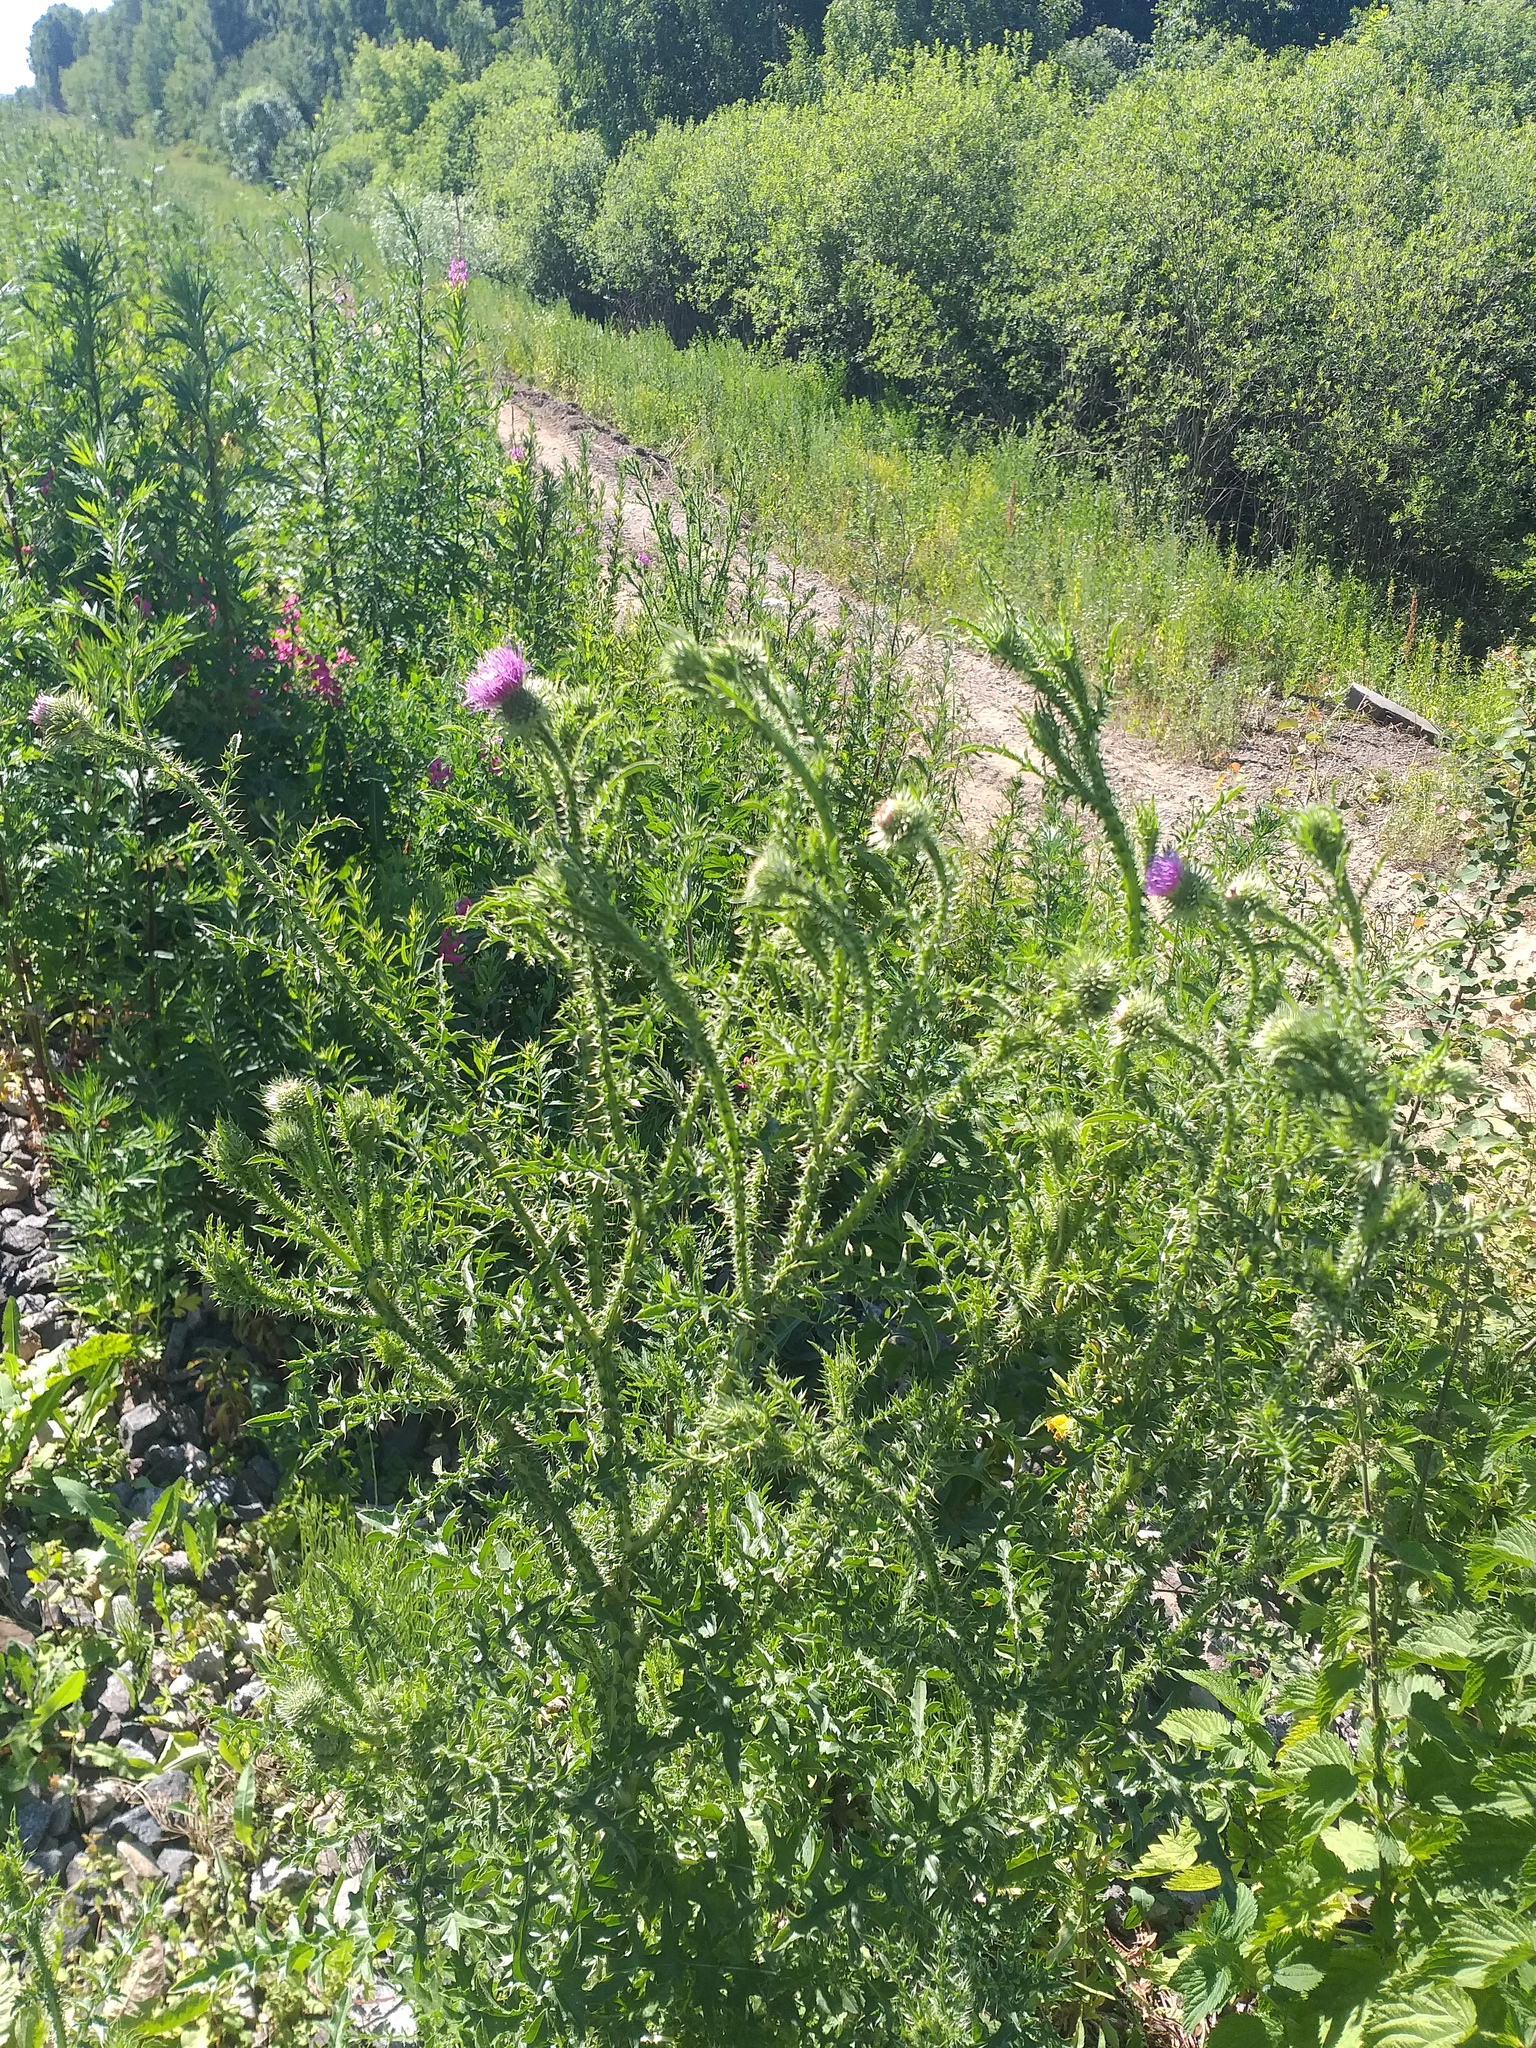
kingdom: Plantae
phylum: Tracheophyta
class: Magnoliopsida
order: Asterales
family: Asteraceae
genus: Carduus
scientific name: Carduus acanthoides
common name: Plumeless thistle
